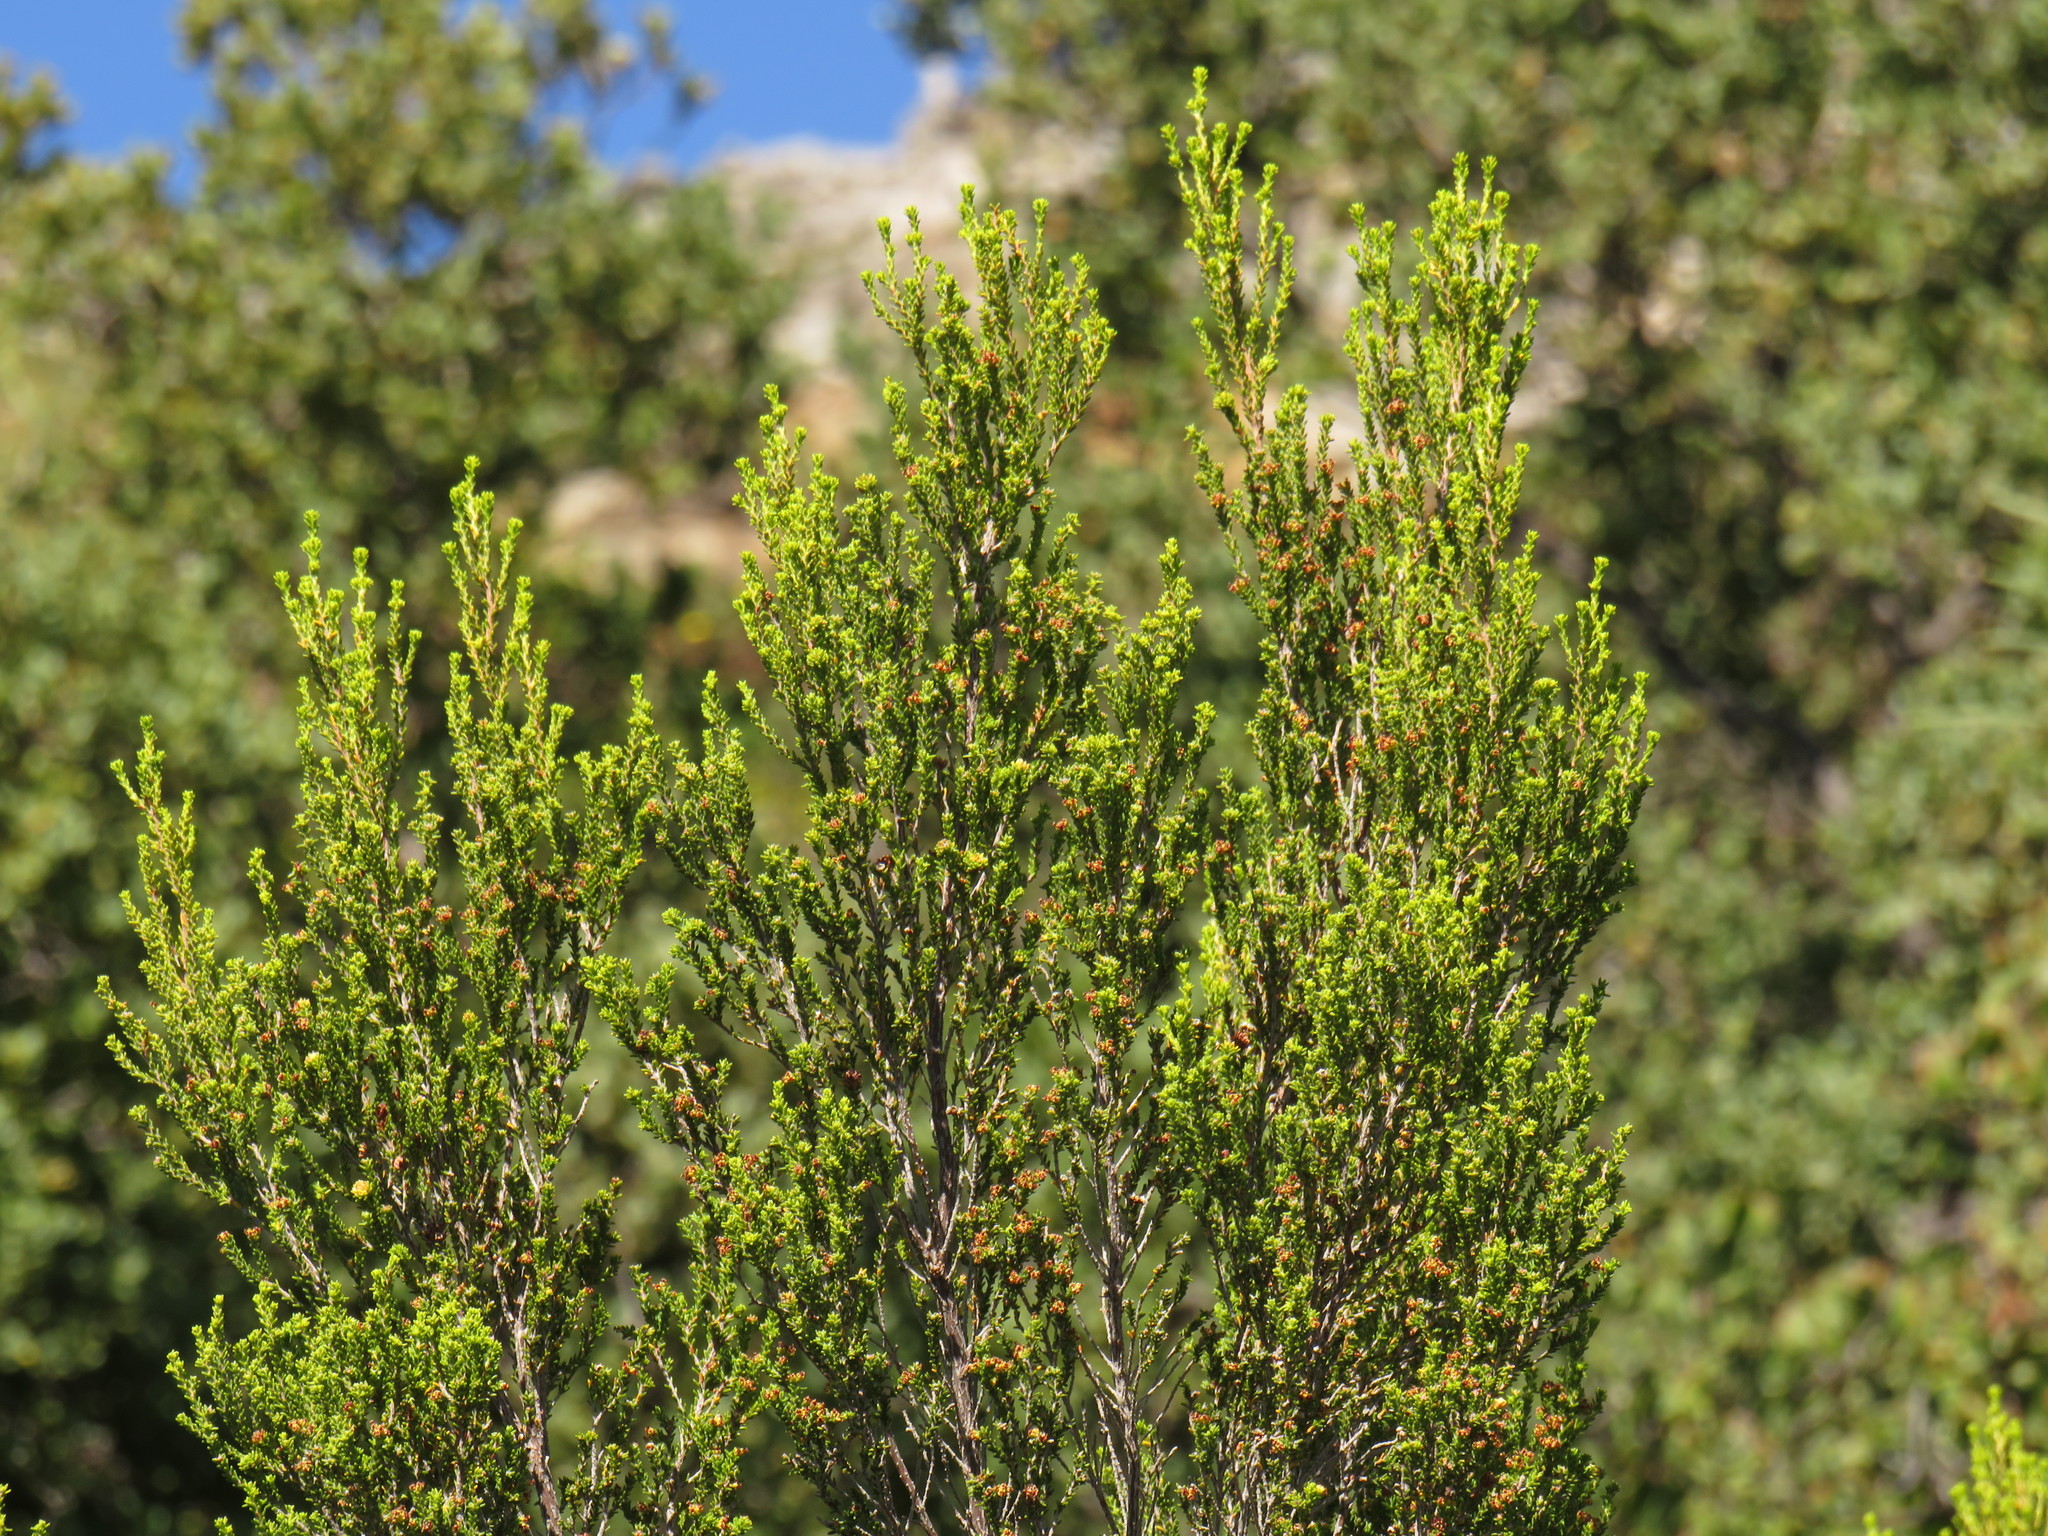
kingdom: Plantae
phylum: Tracheophyta
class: Magnoliopsida
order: Ericales
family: Ericaceae
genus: Erica
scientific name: Erica tristis
